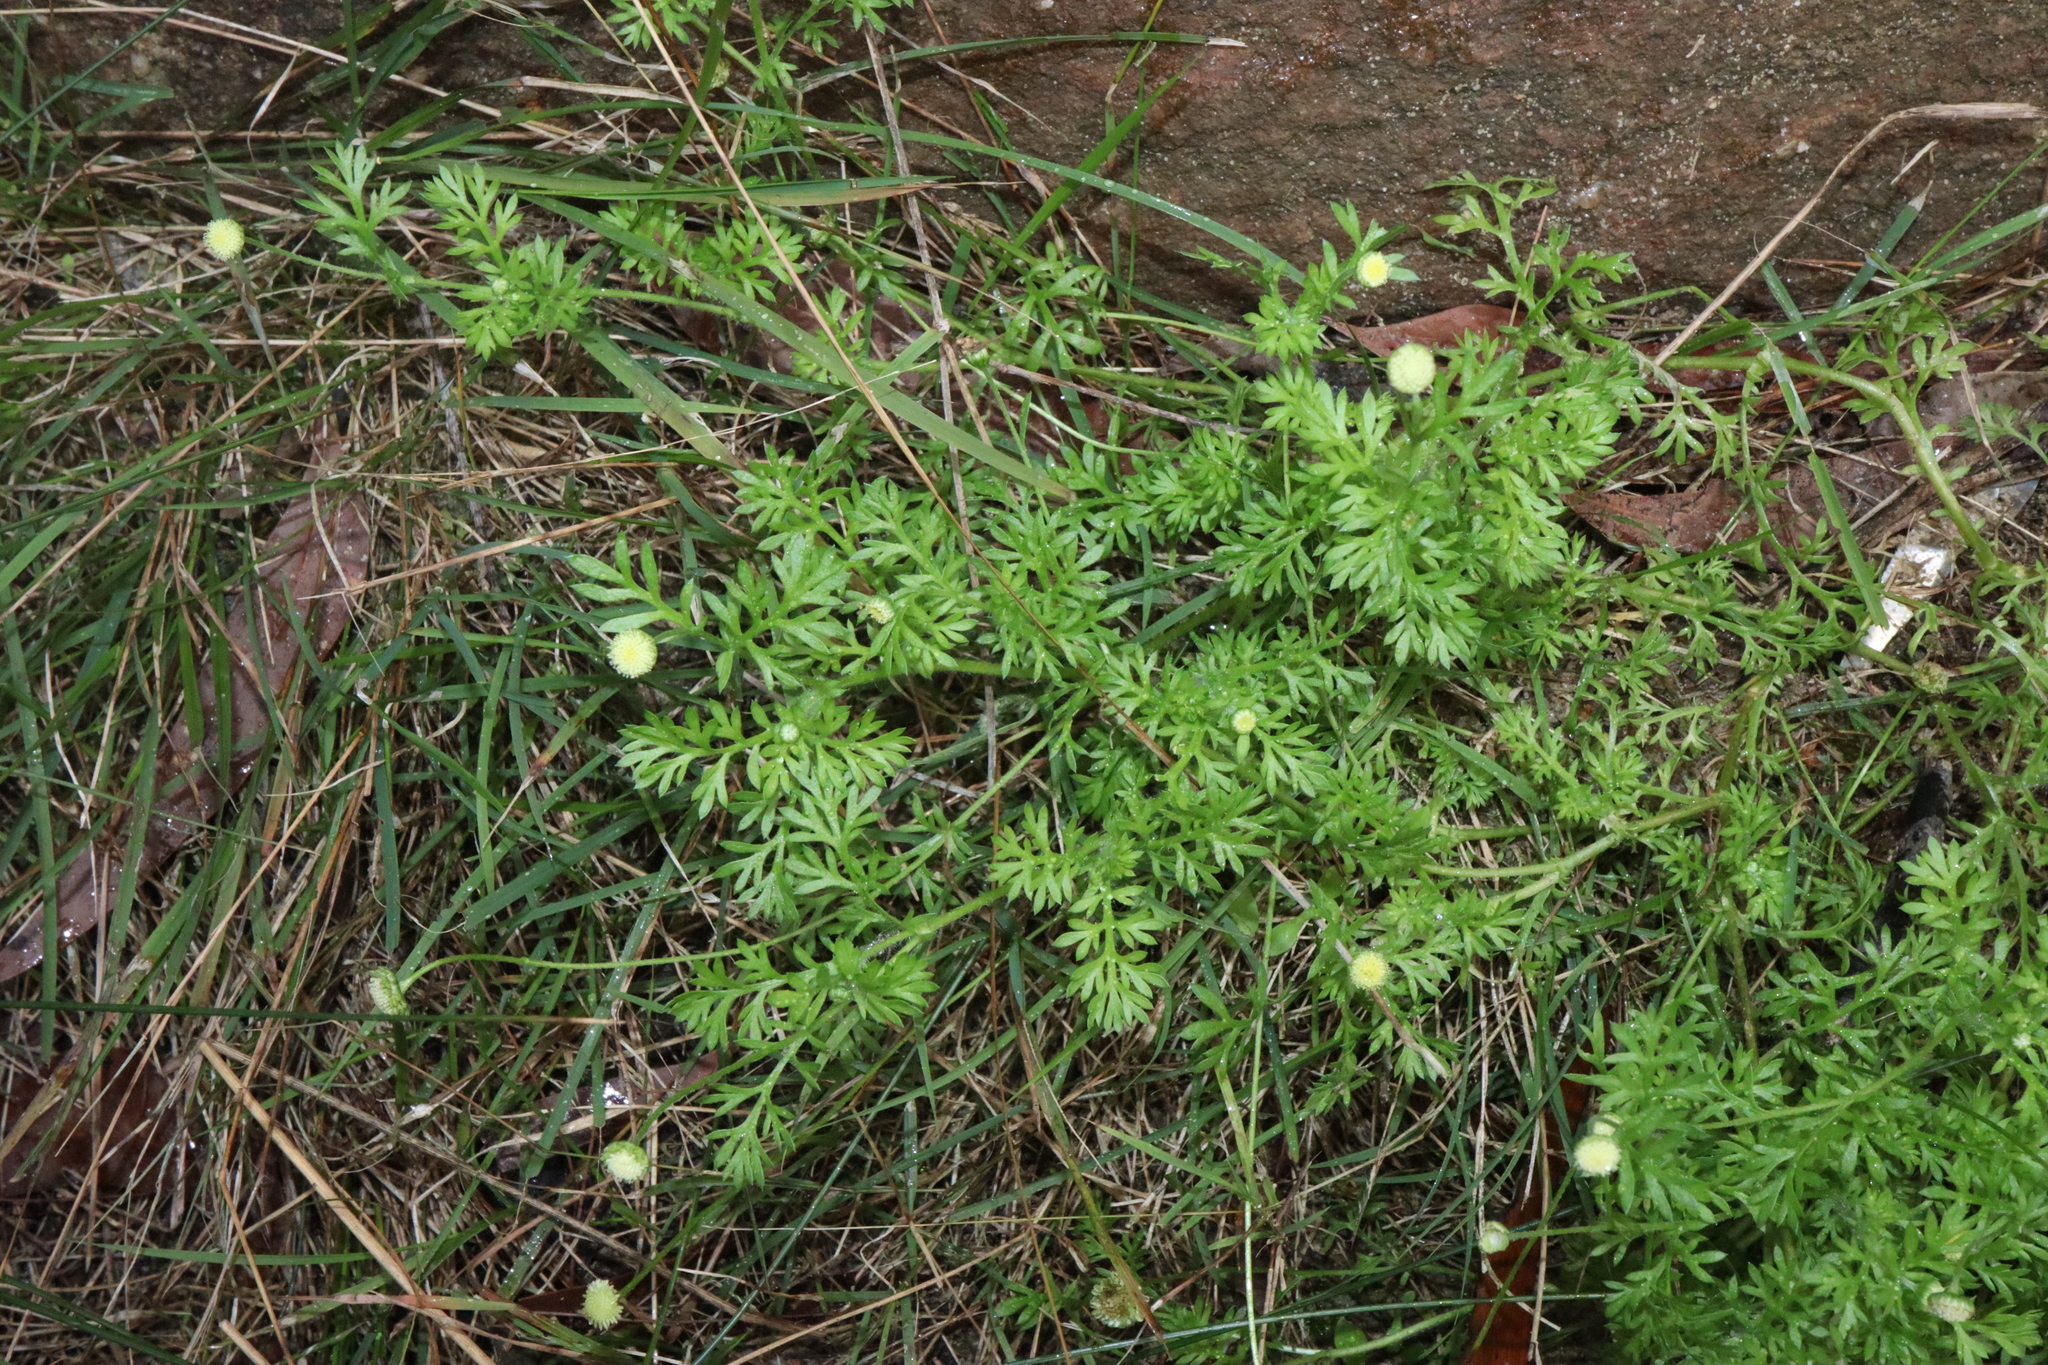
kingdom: Plantae
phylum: Tracheophyta
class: Magnoliopsida
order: Asterales
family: Asteraceae
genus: Cotula
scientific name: Cotula australis
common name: Australian waterbuttons
